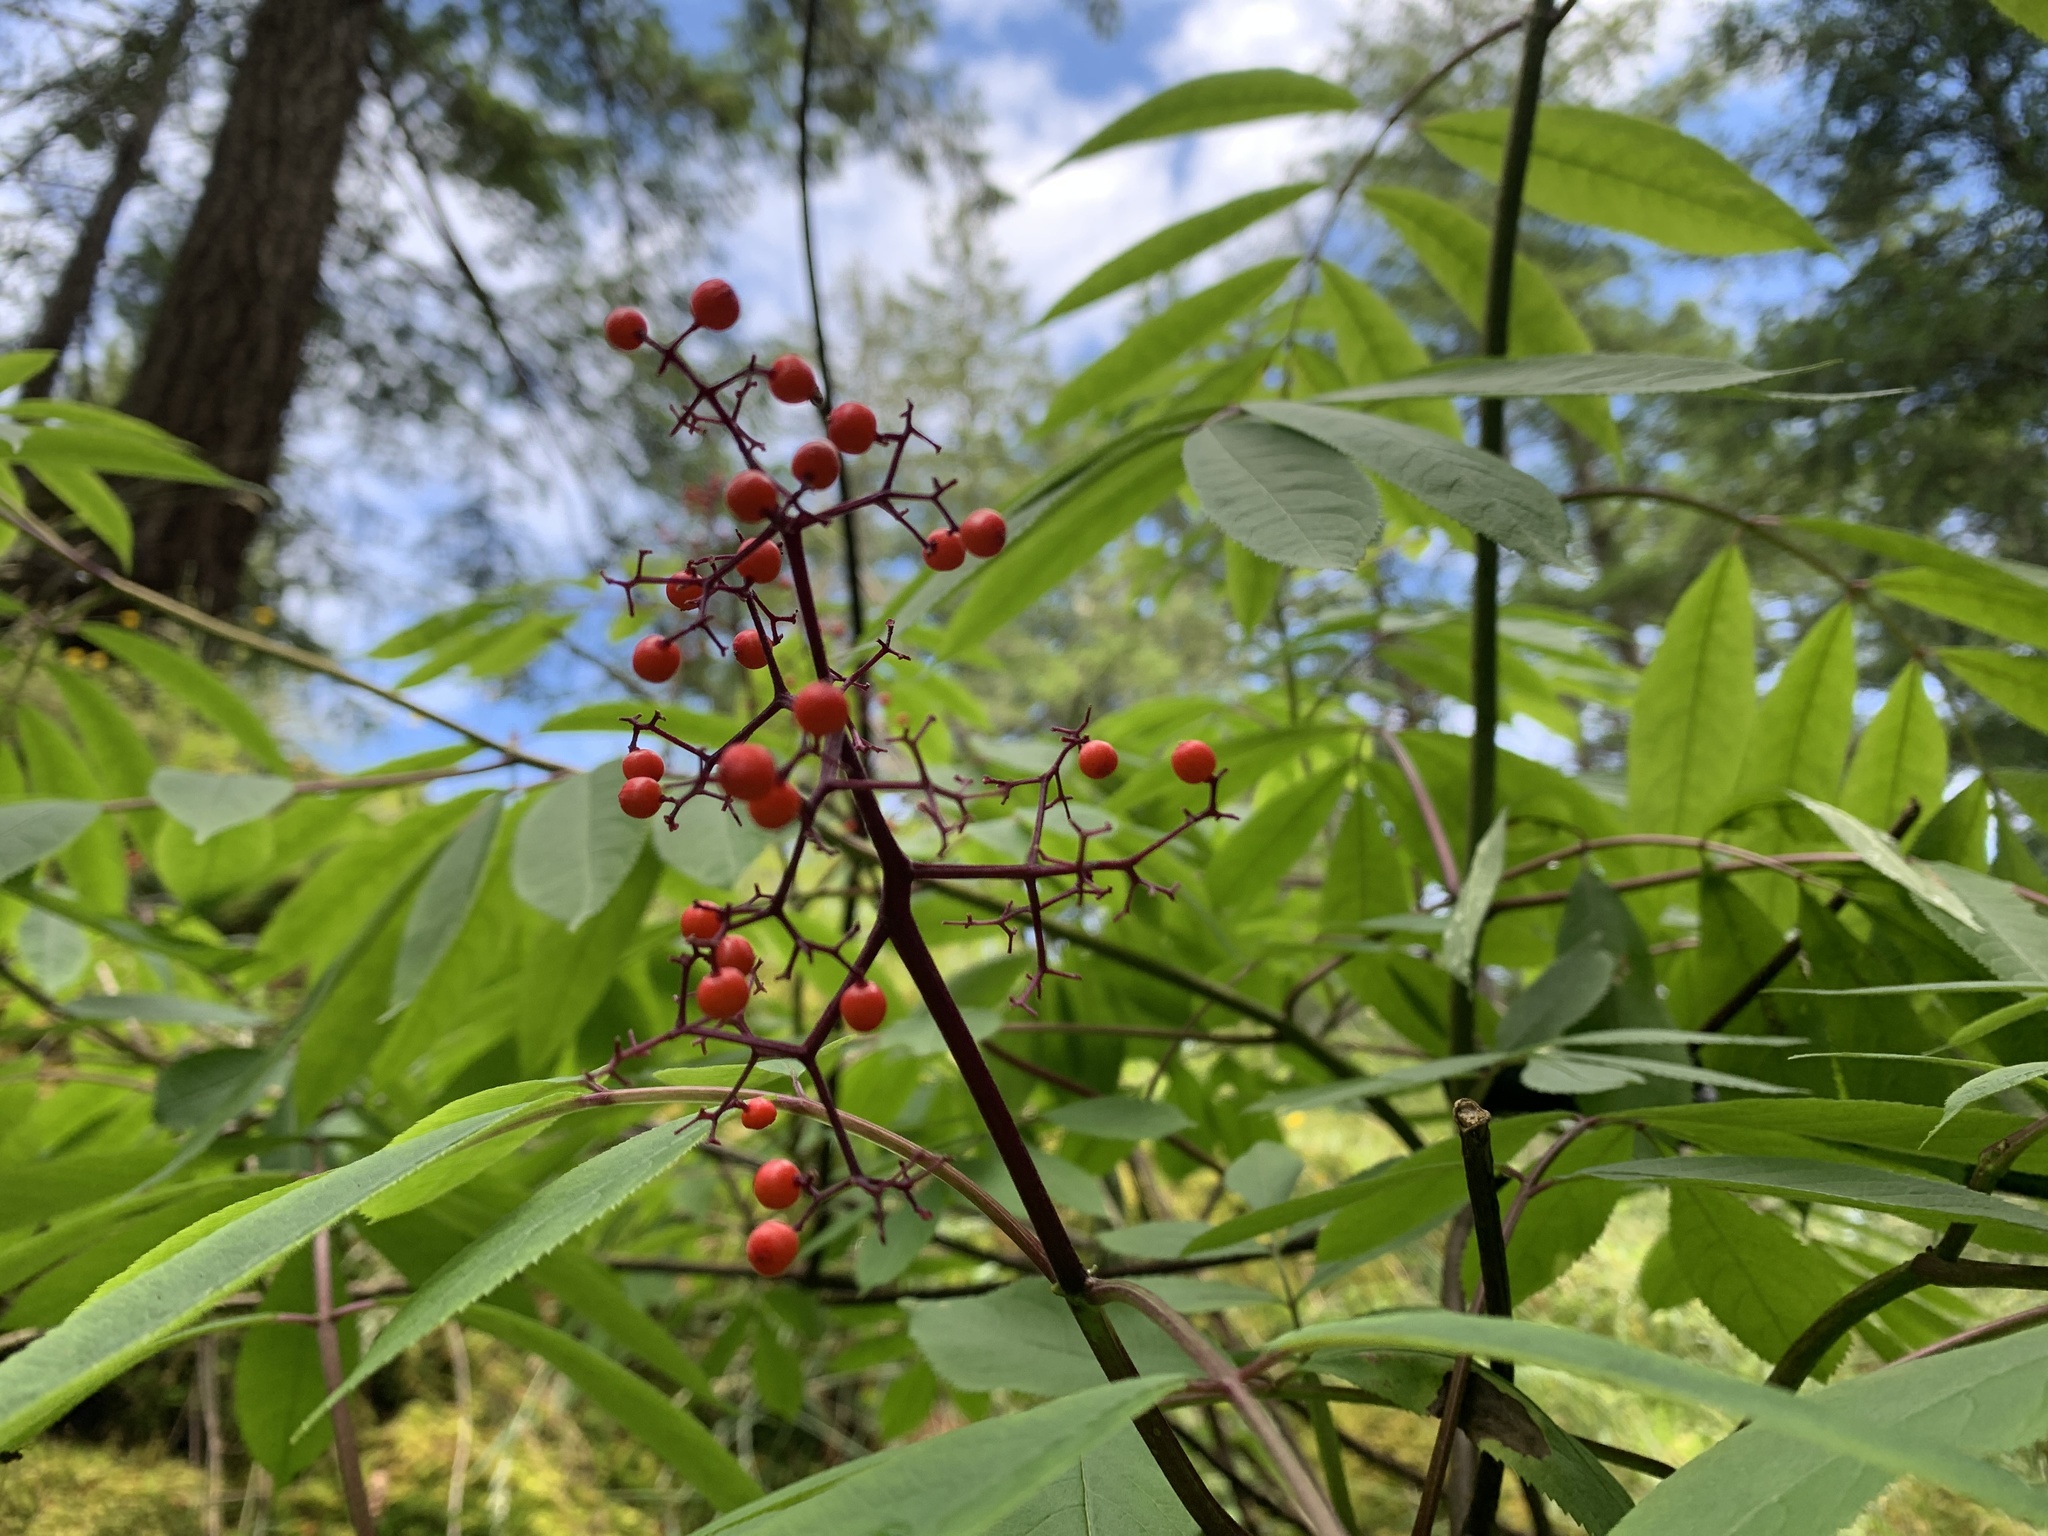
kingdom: Plantae
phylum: Tracheophyta
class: Magnoliopsida
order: Dipsacales
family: Viburnaceae
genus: Sambucus
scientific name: Sambucus racemosa
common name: Red-berried elder
